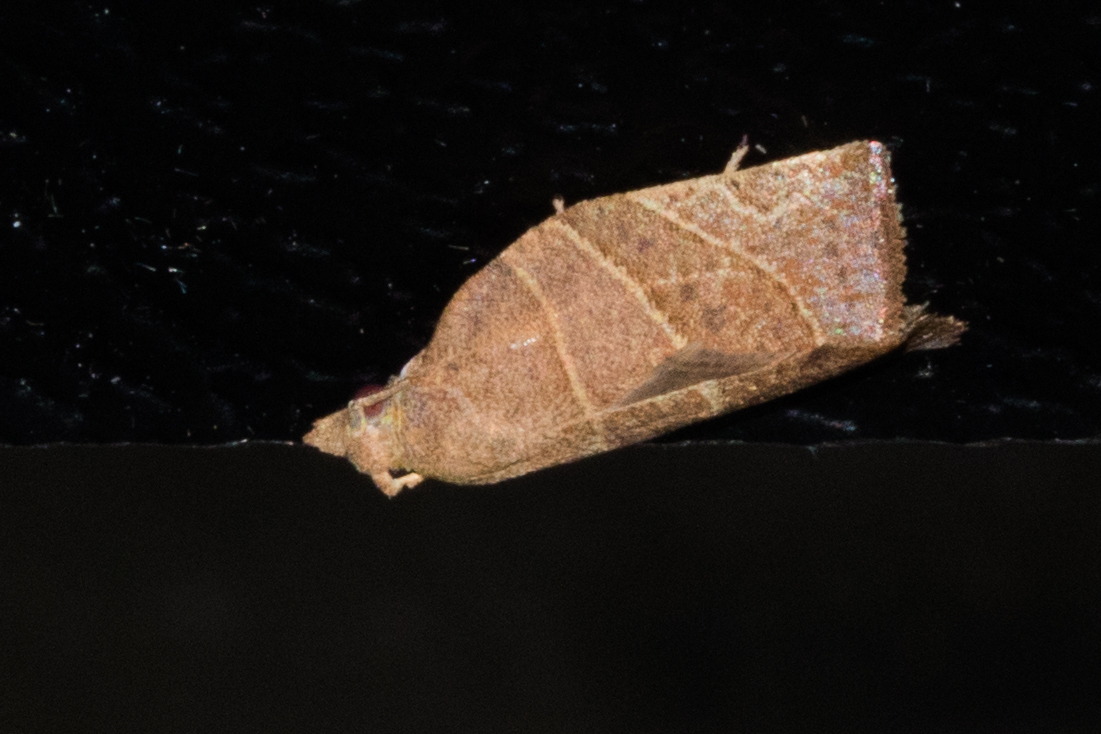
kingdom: Animalia
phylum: Arthropoda
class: Insecta
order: Lepidoptera
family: Tortricidae
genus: Pandemis
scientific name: Pandemis limitata
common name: Three-lined leafroller moth
